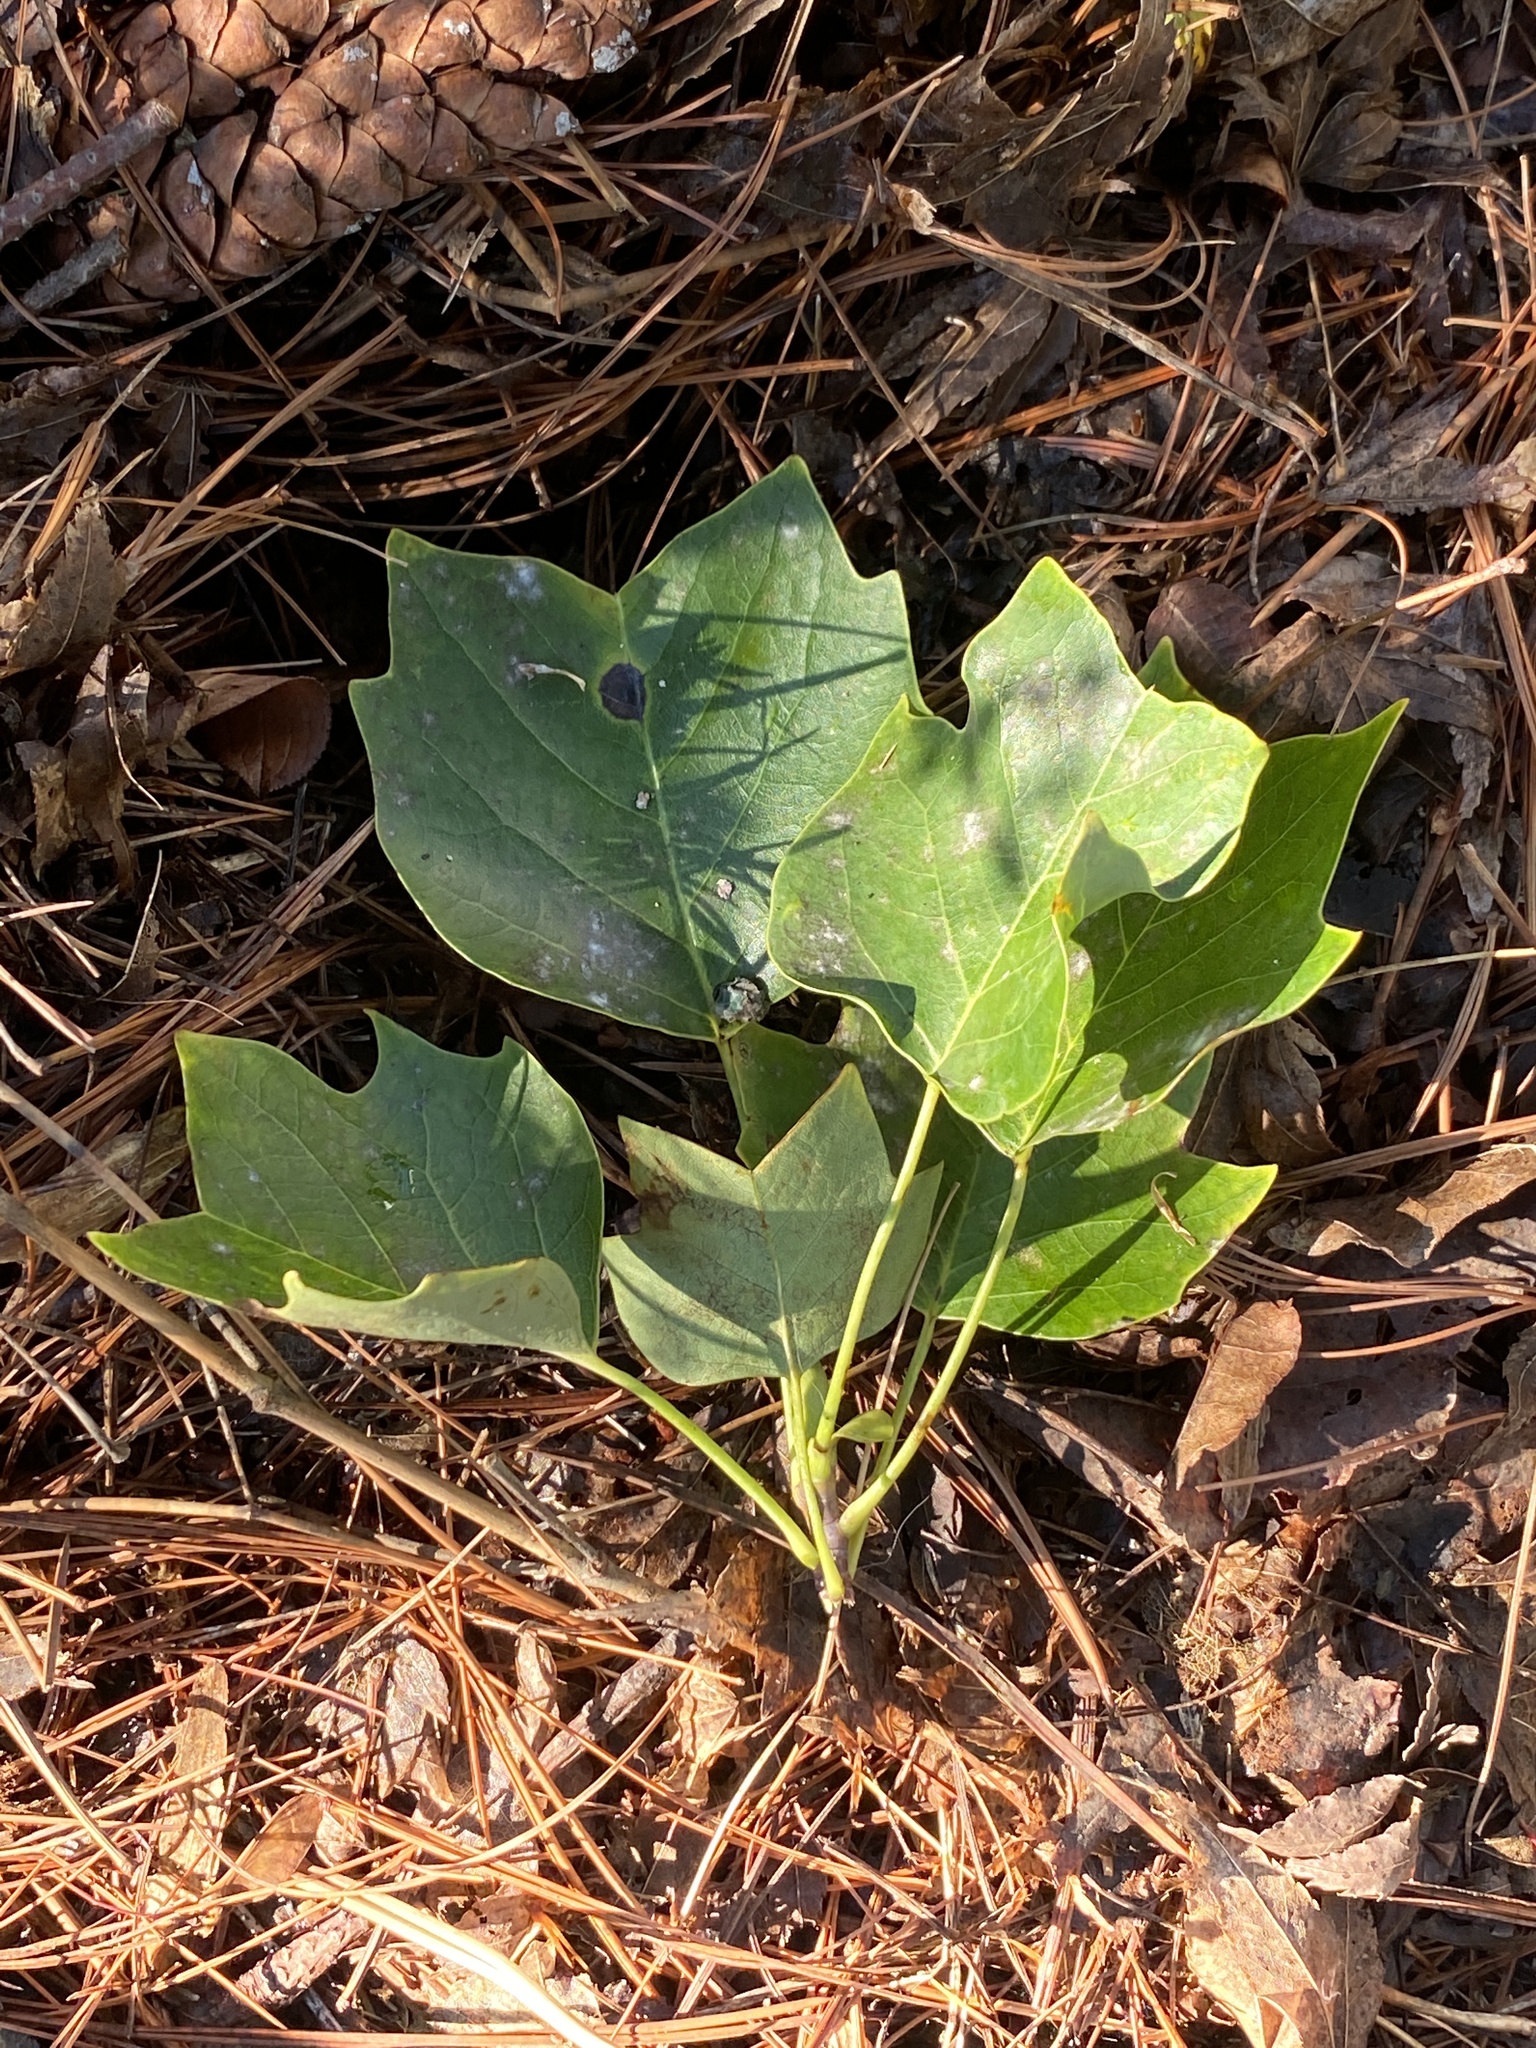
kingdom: Plantae
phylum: Tracheophyta
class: Magnoliopsida
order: Magnoliales
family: Magnoliaceae
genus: Liriodendron
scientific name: Liriodendron tulipifera
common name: Tulip tree
